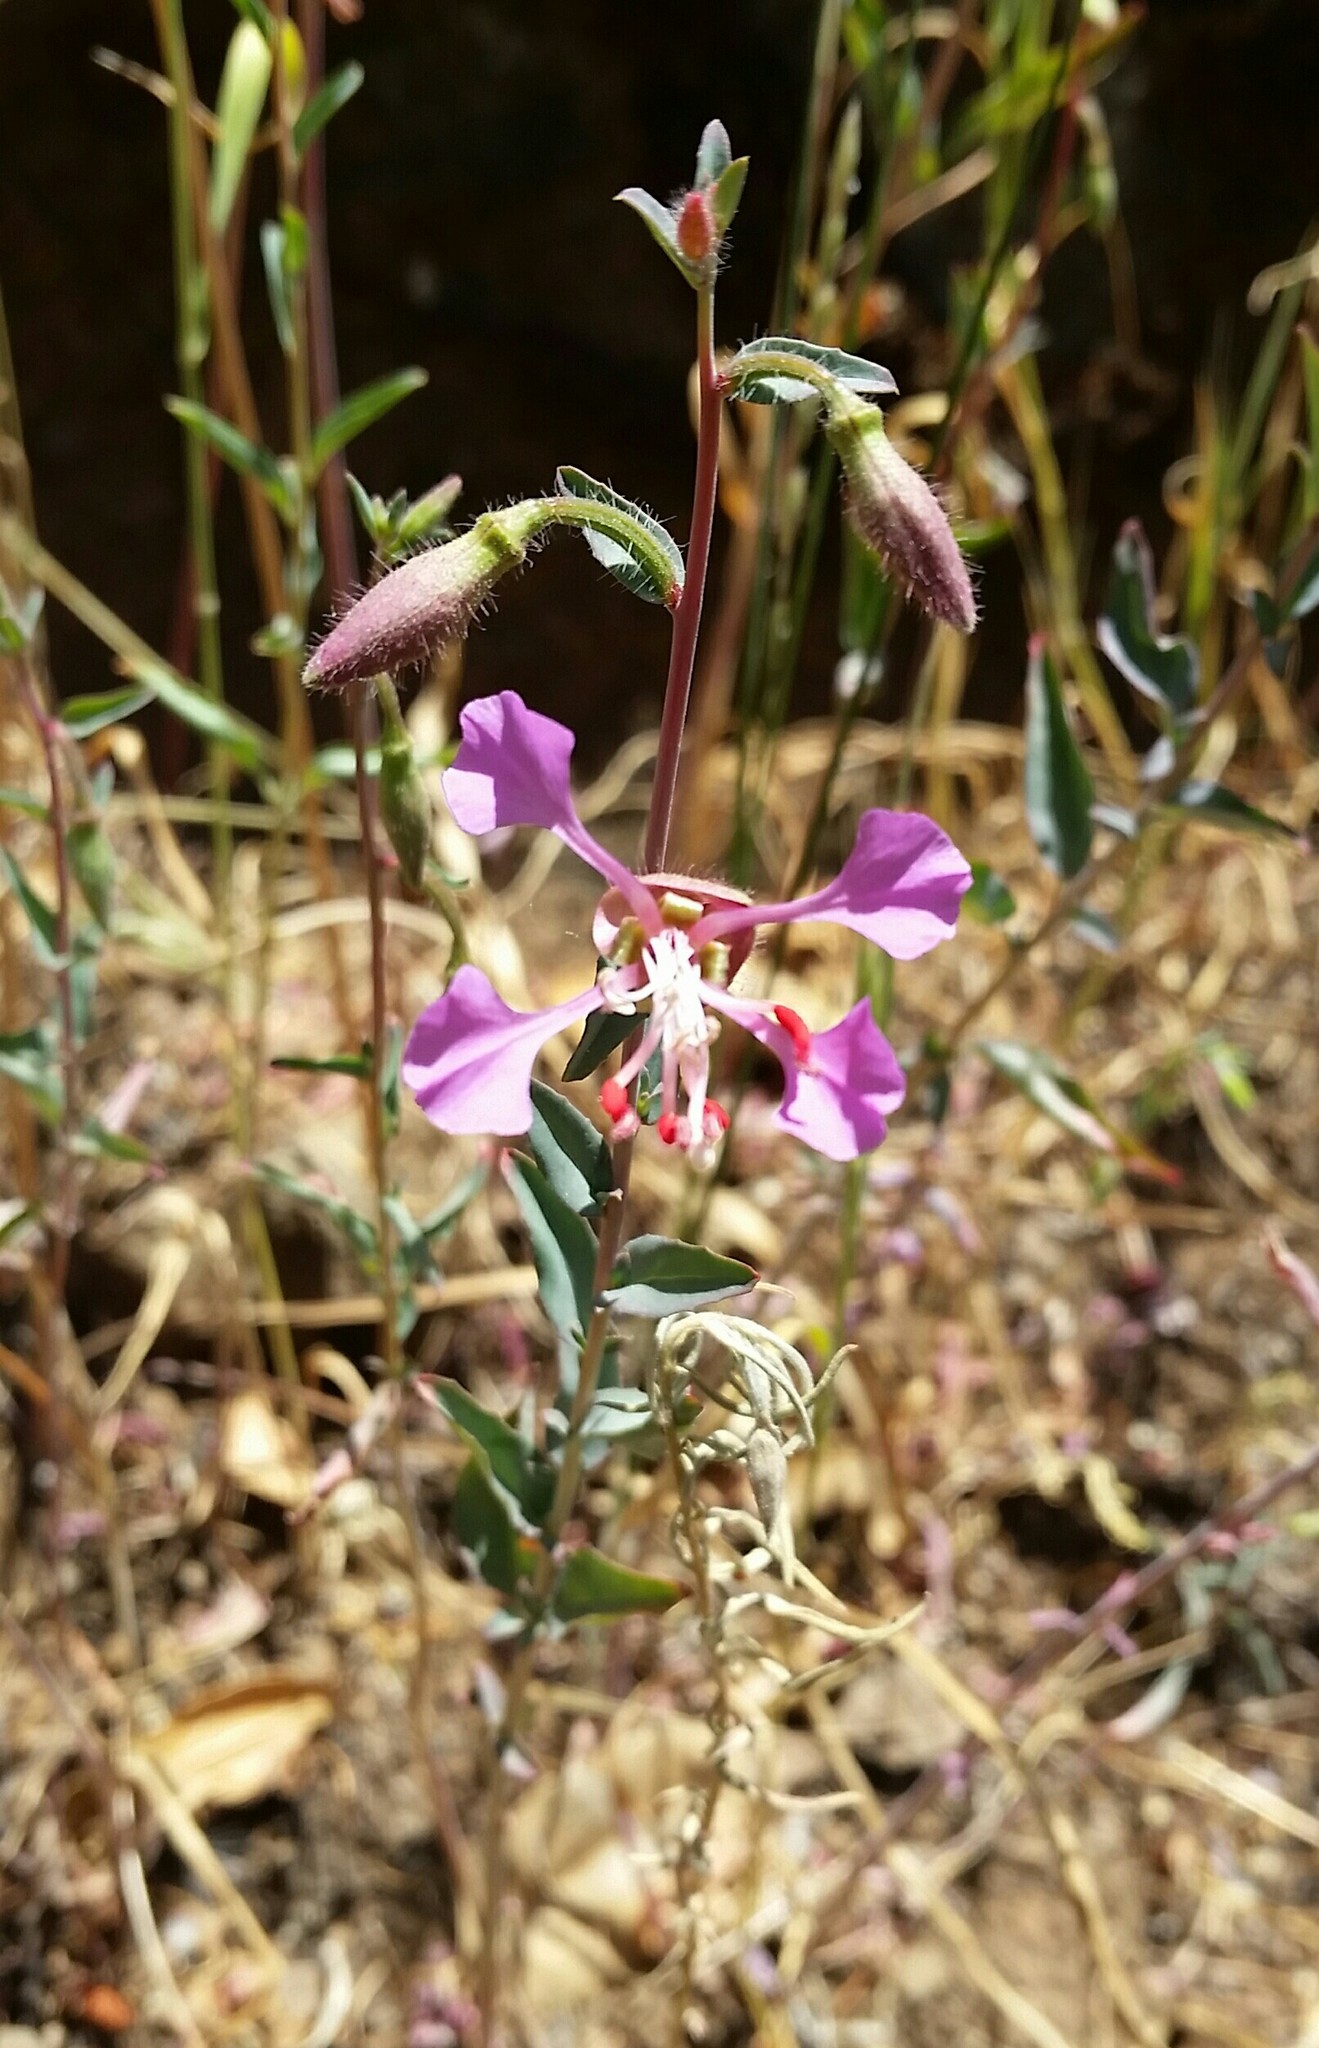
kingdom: Plantae
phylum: Tracheophyta
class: Magnoliopsida
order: Myrtales
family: Onagraceae
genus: Clarkia
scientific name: Clarkia unguiculata
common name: Clarkia
